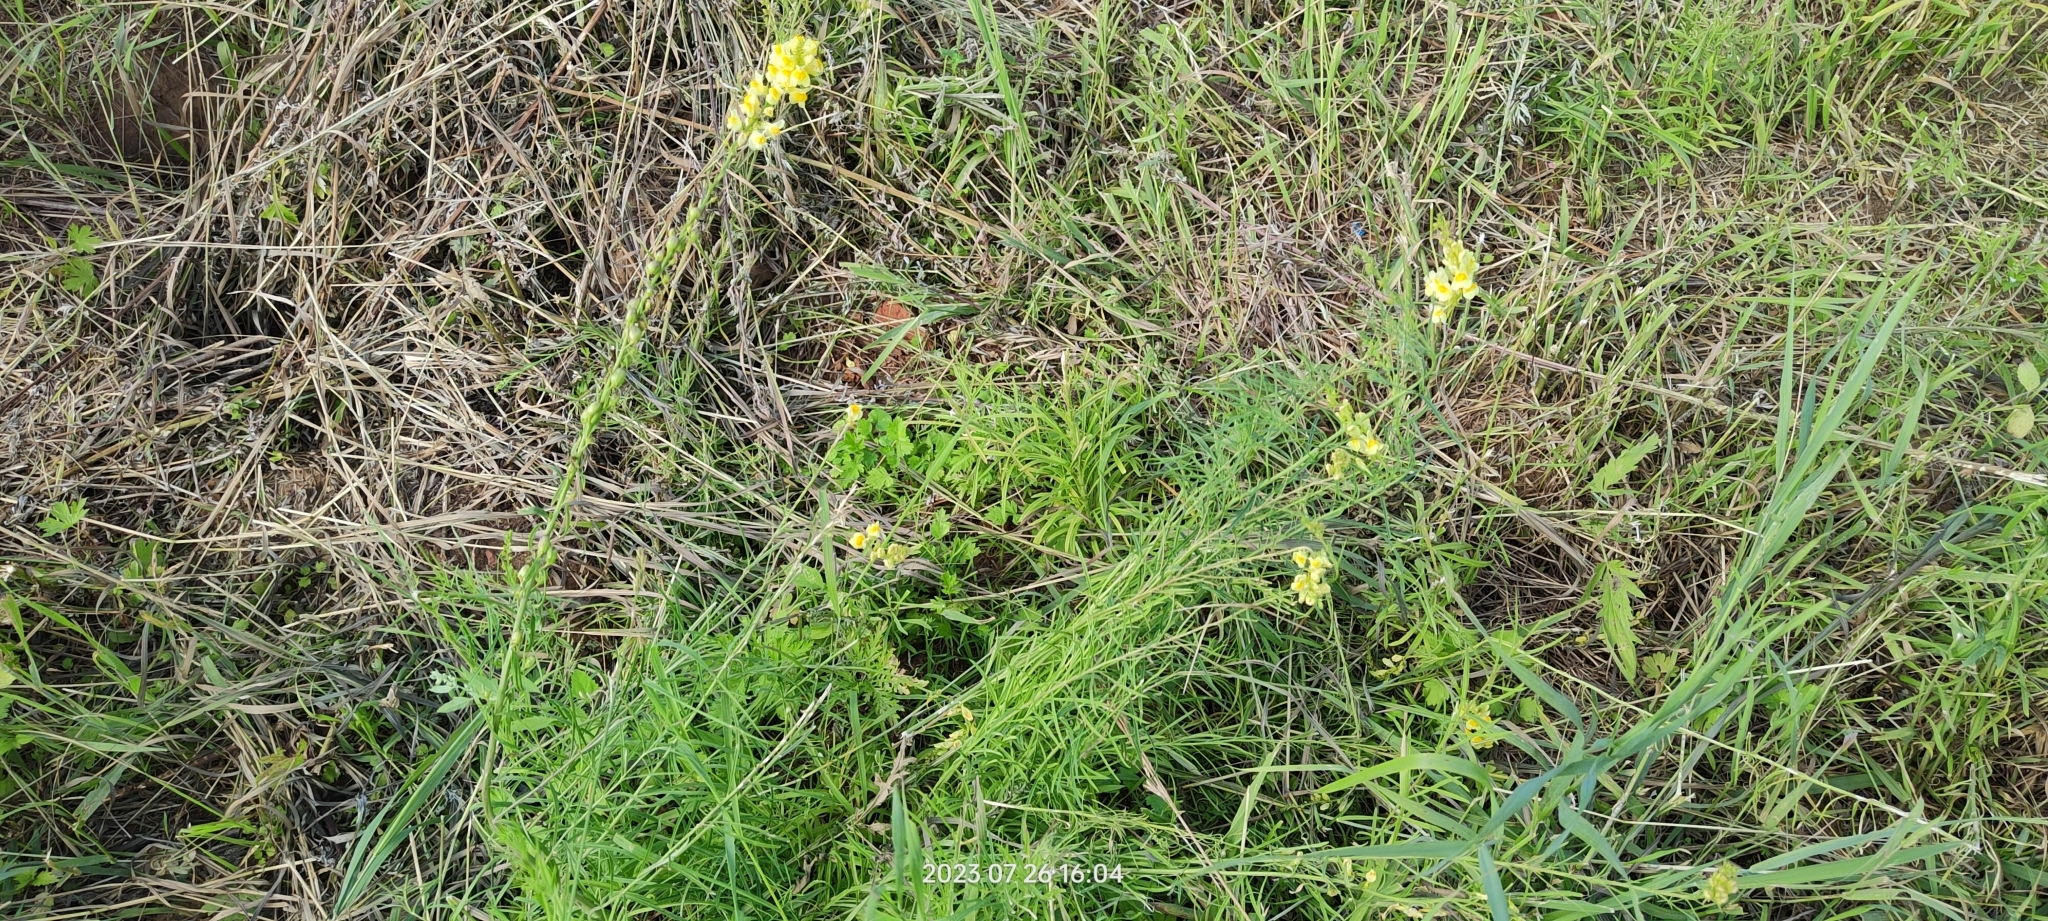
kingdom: Plantae
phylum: Tracheophyta
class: Magnoliopsida
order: Lamiales
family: Plantaginaceae
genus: Linaria
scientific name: Linaria vulgaris
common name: Butter and eggs
